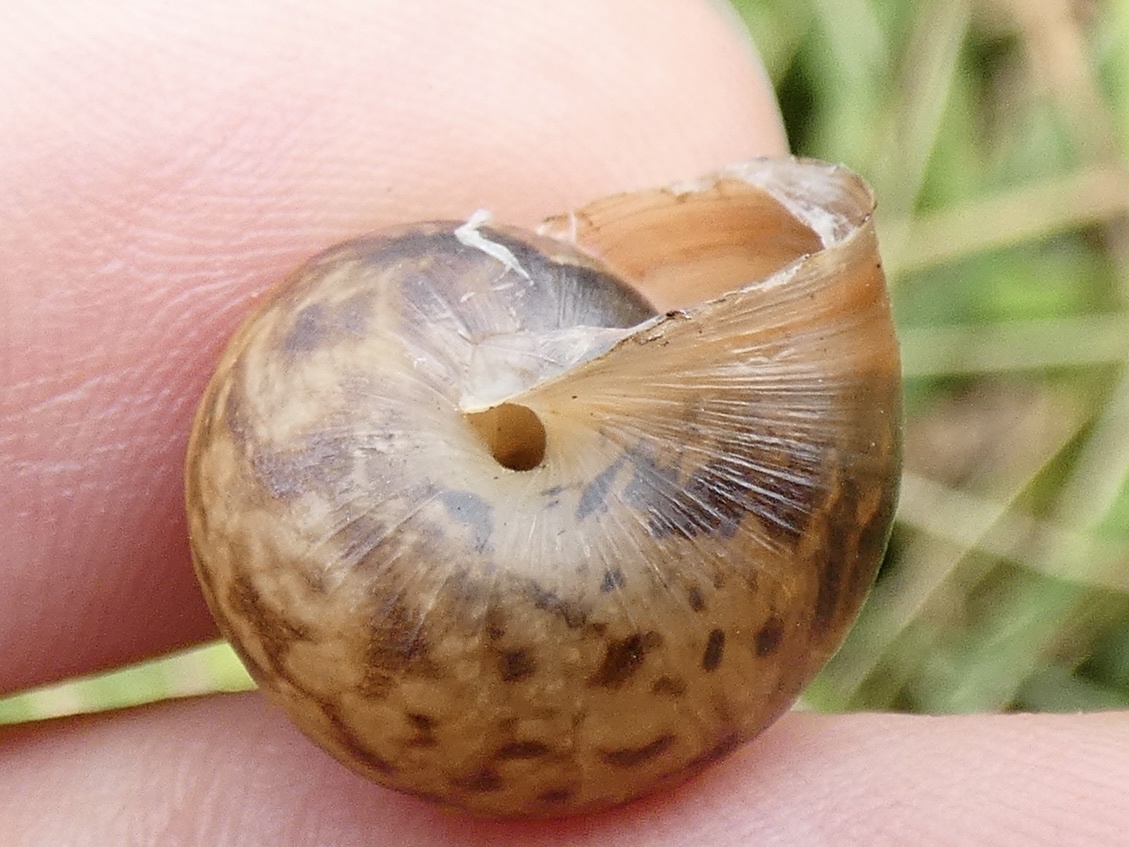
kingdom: Animalia
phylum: Mollusca
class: Gastropoda
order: Stylommatophora
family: Hygromiidae
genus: Monacha
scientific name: Monacha cantiana
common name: Kentish snail
